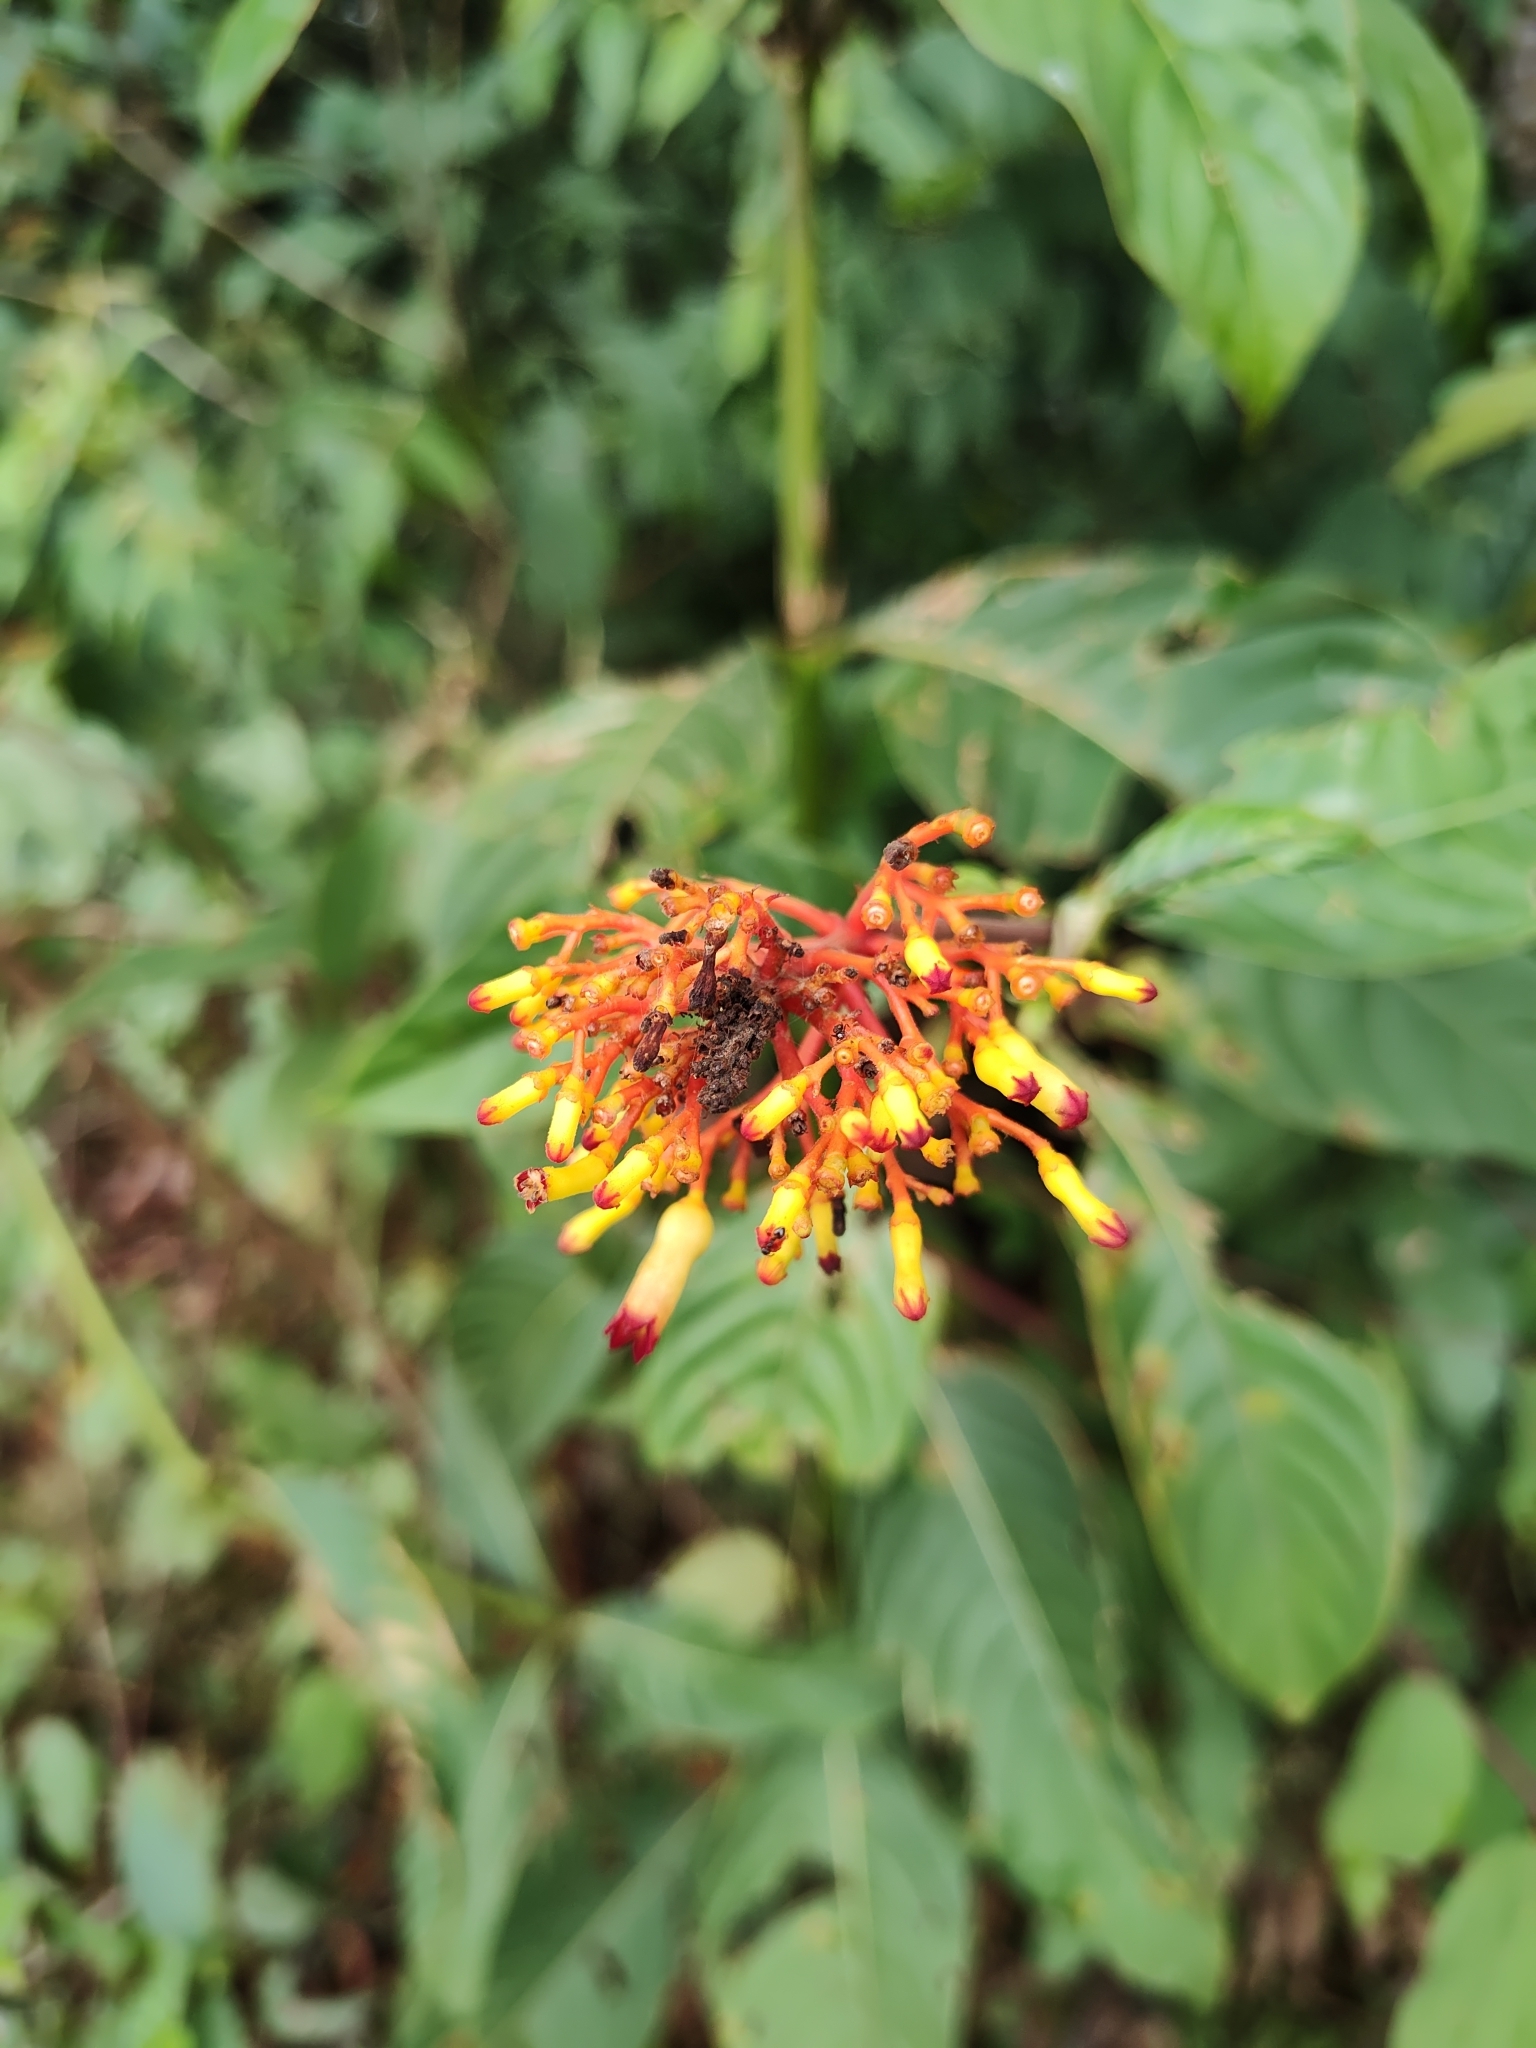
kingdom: Plantae
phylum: Tracheophyta
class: Magnoliopsida
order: Gentianales
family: Rubiaceae
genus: Palicourea
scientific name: Palicourea triphylla
